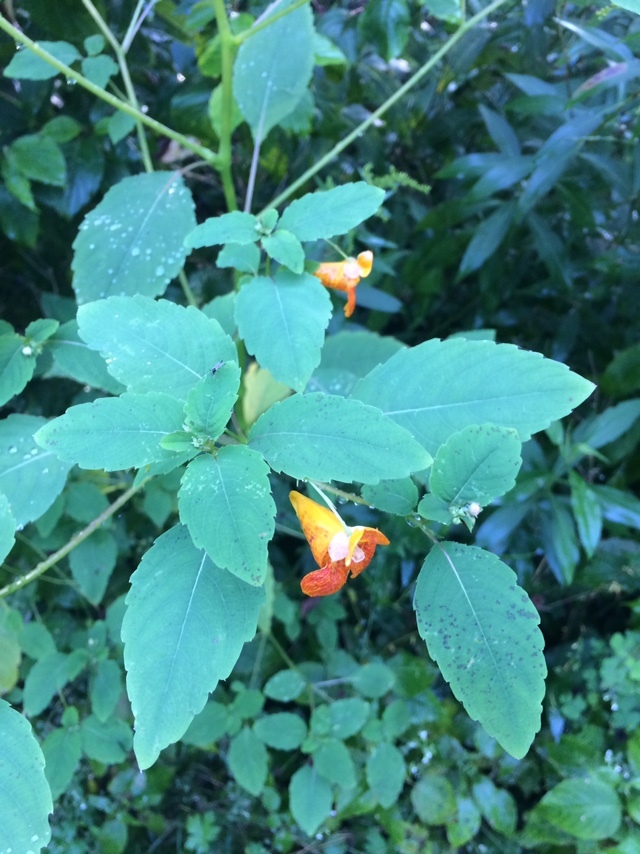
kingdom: Plantae
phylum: Tracheophyta
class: Magnoliopsida
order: Ericales
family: Balsaminaceae
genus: Impatiens
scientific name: Impatiens capensis
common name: Orange balsam
